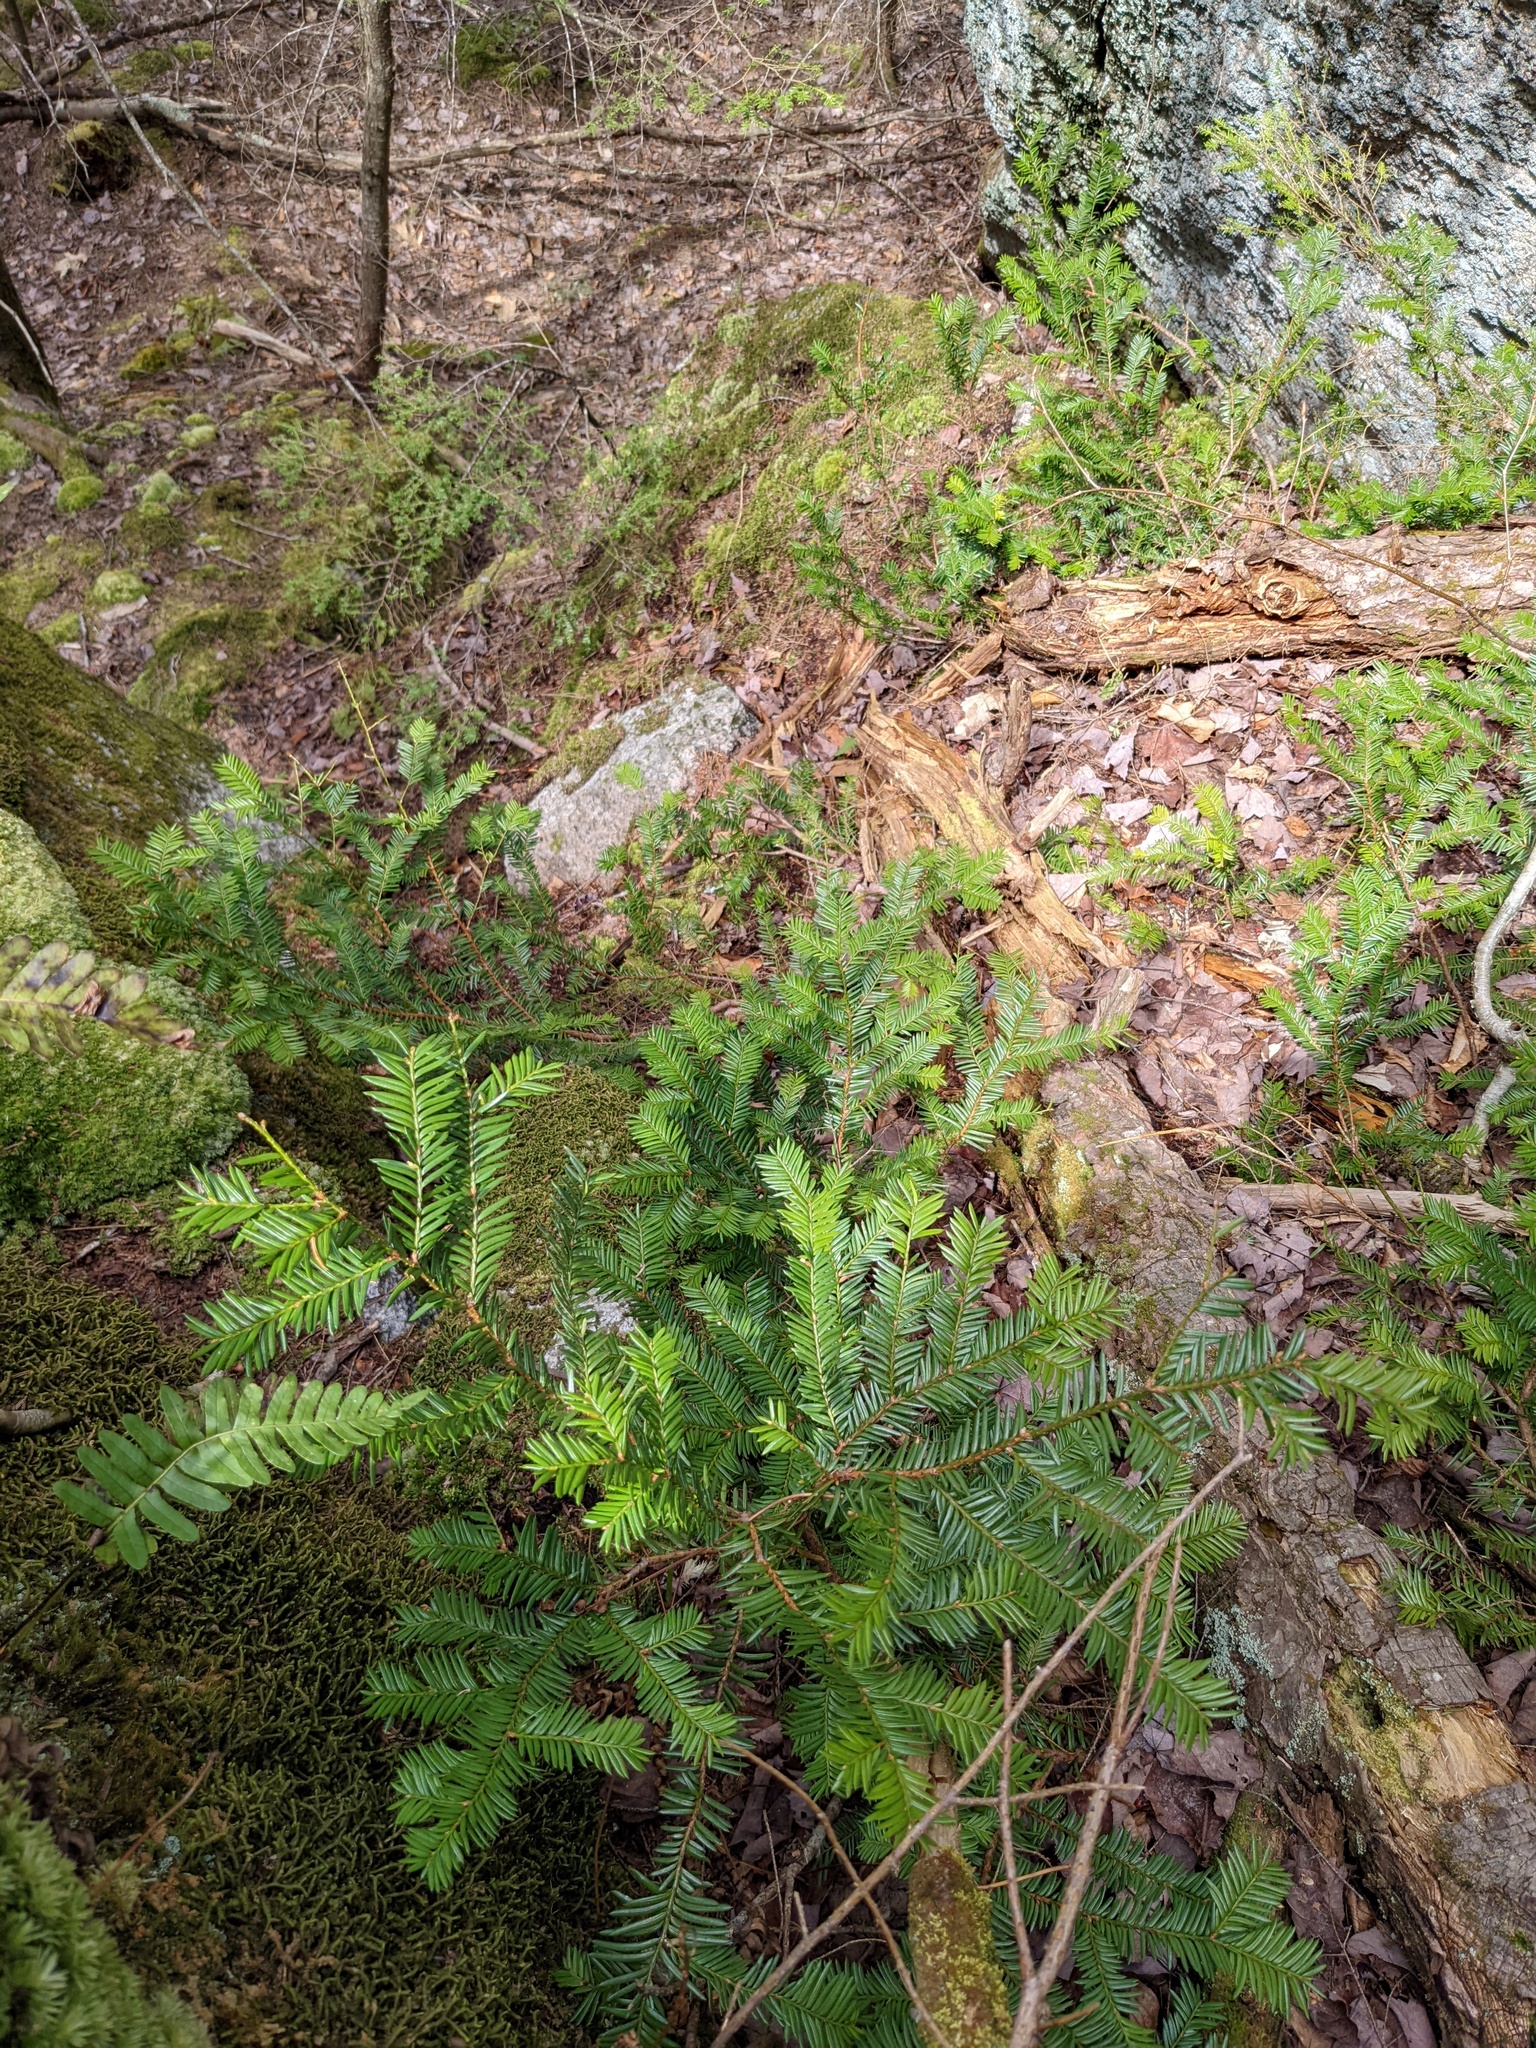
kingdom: Plantae
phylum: Tracheophyta
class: Pinopsida
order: Pinales
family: Taxaceae
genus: Taxus
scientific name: Taxus canadensis
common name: American yew
